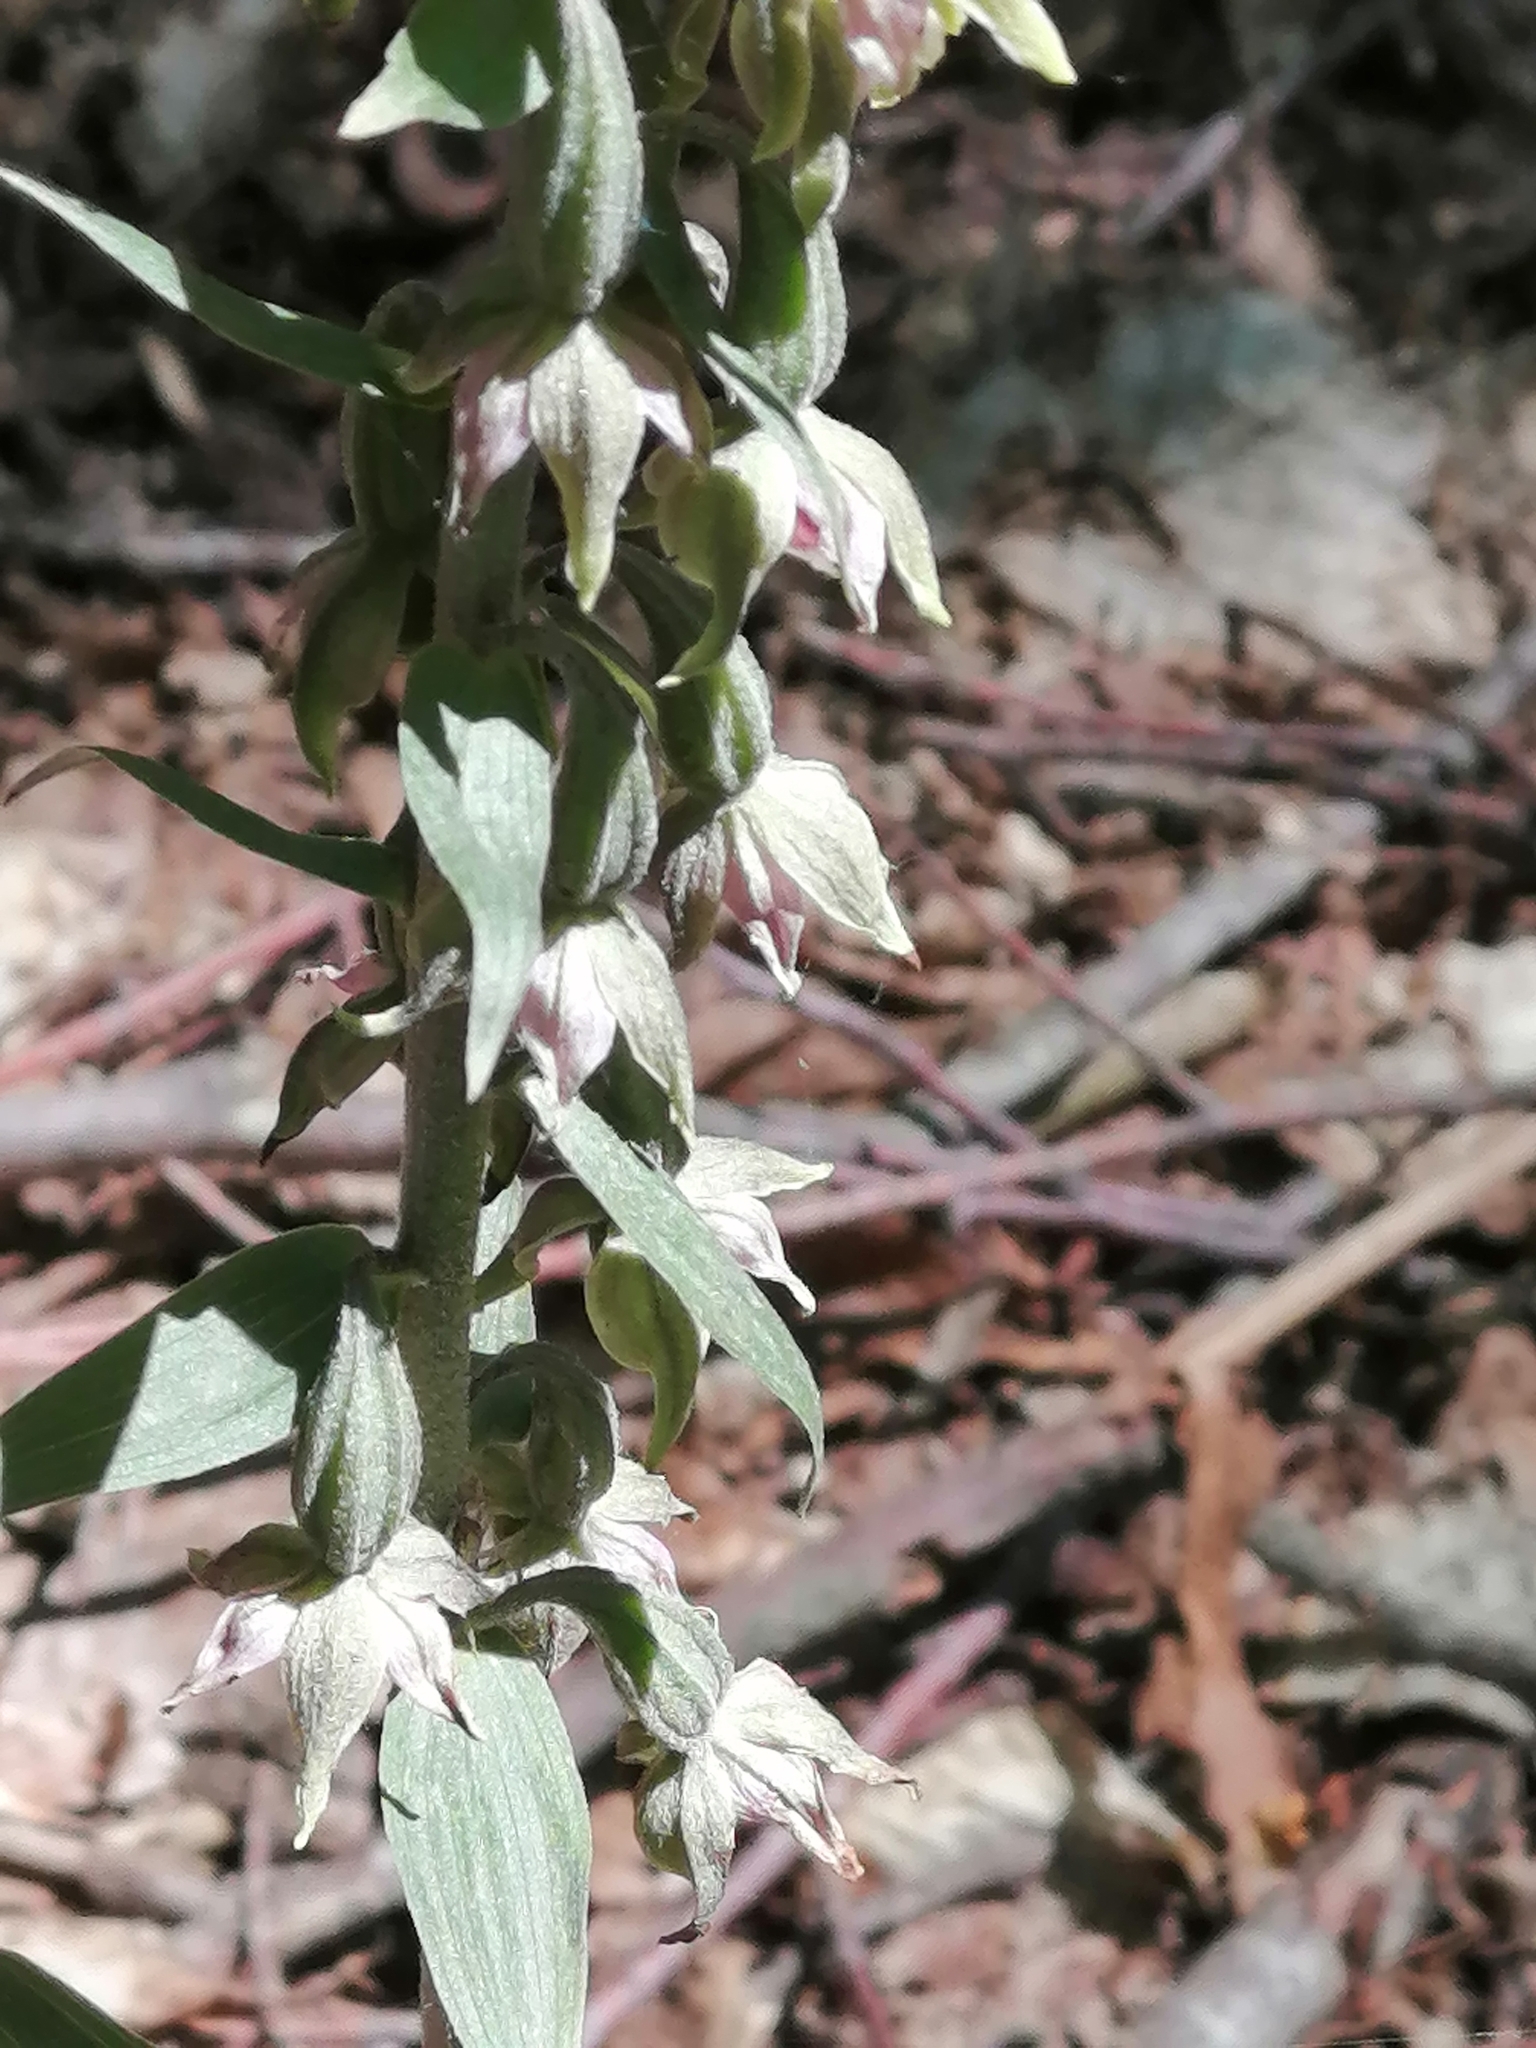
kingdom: Plantae
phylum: Tracheophyta
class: Liliopsida
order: Asparagales
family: Orchidaceae
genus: Epipactis
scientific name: Epipactis helleborine
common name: Broad-leaved helleborine
